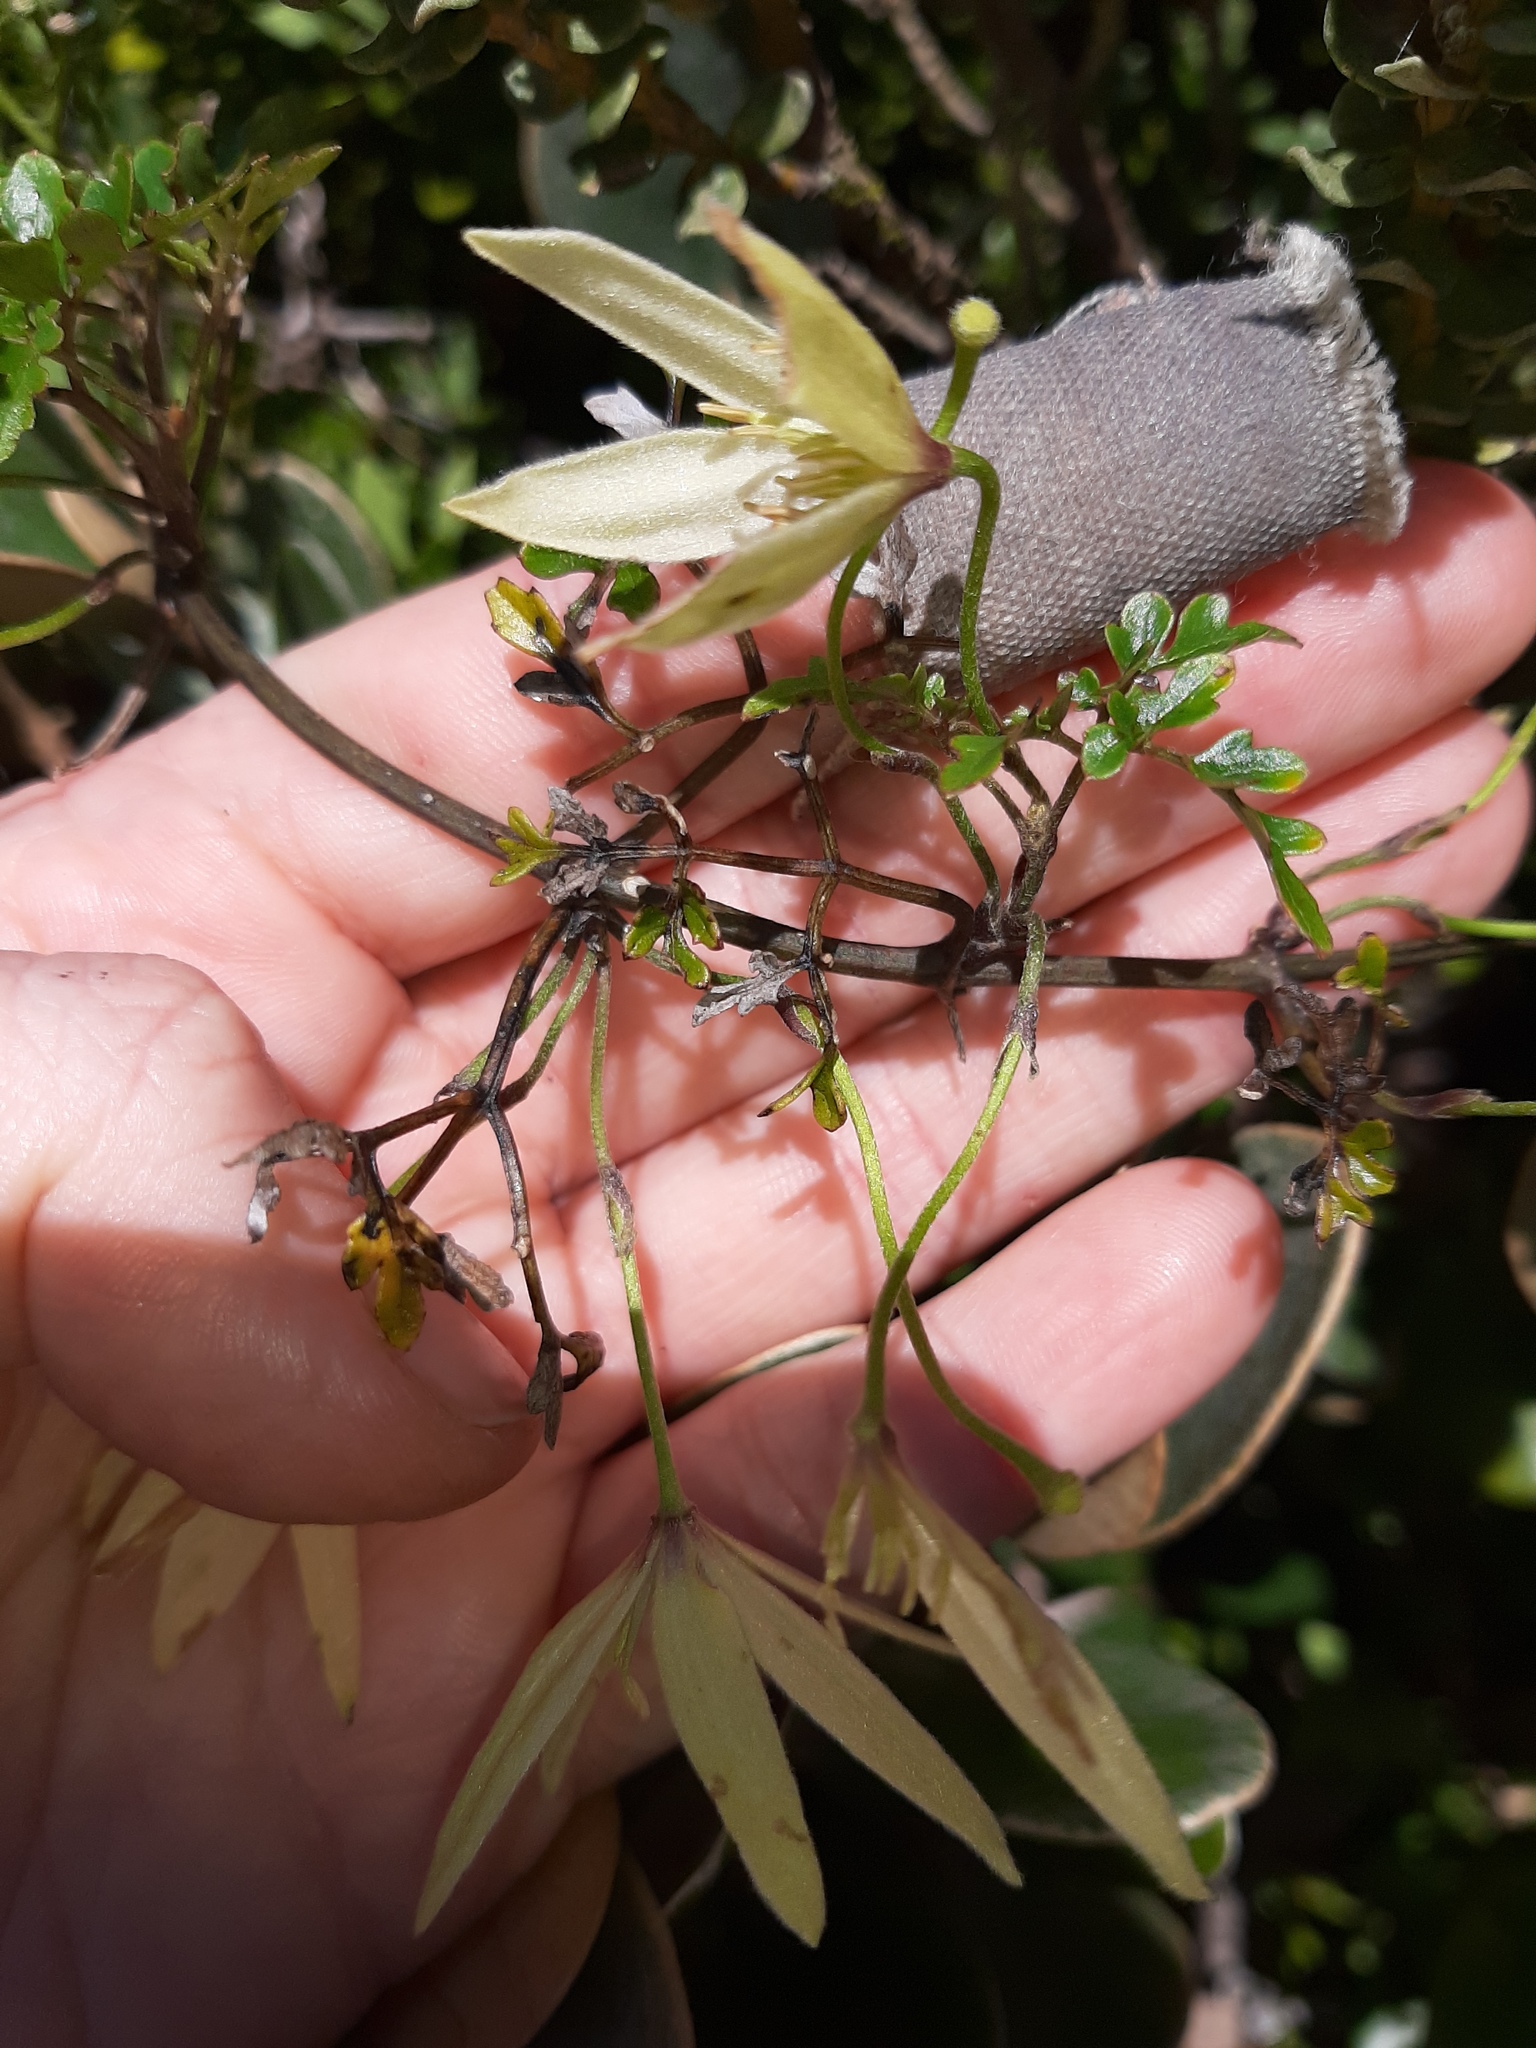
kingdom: Plantae
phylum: Tracheophyta
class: Magnoliopsida
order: Ranunculales
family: Ranunculaceae
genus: Clematis
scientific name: Clematis forsteri
